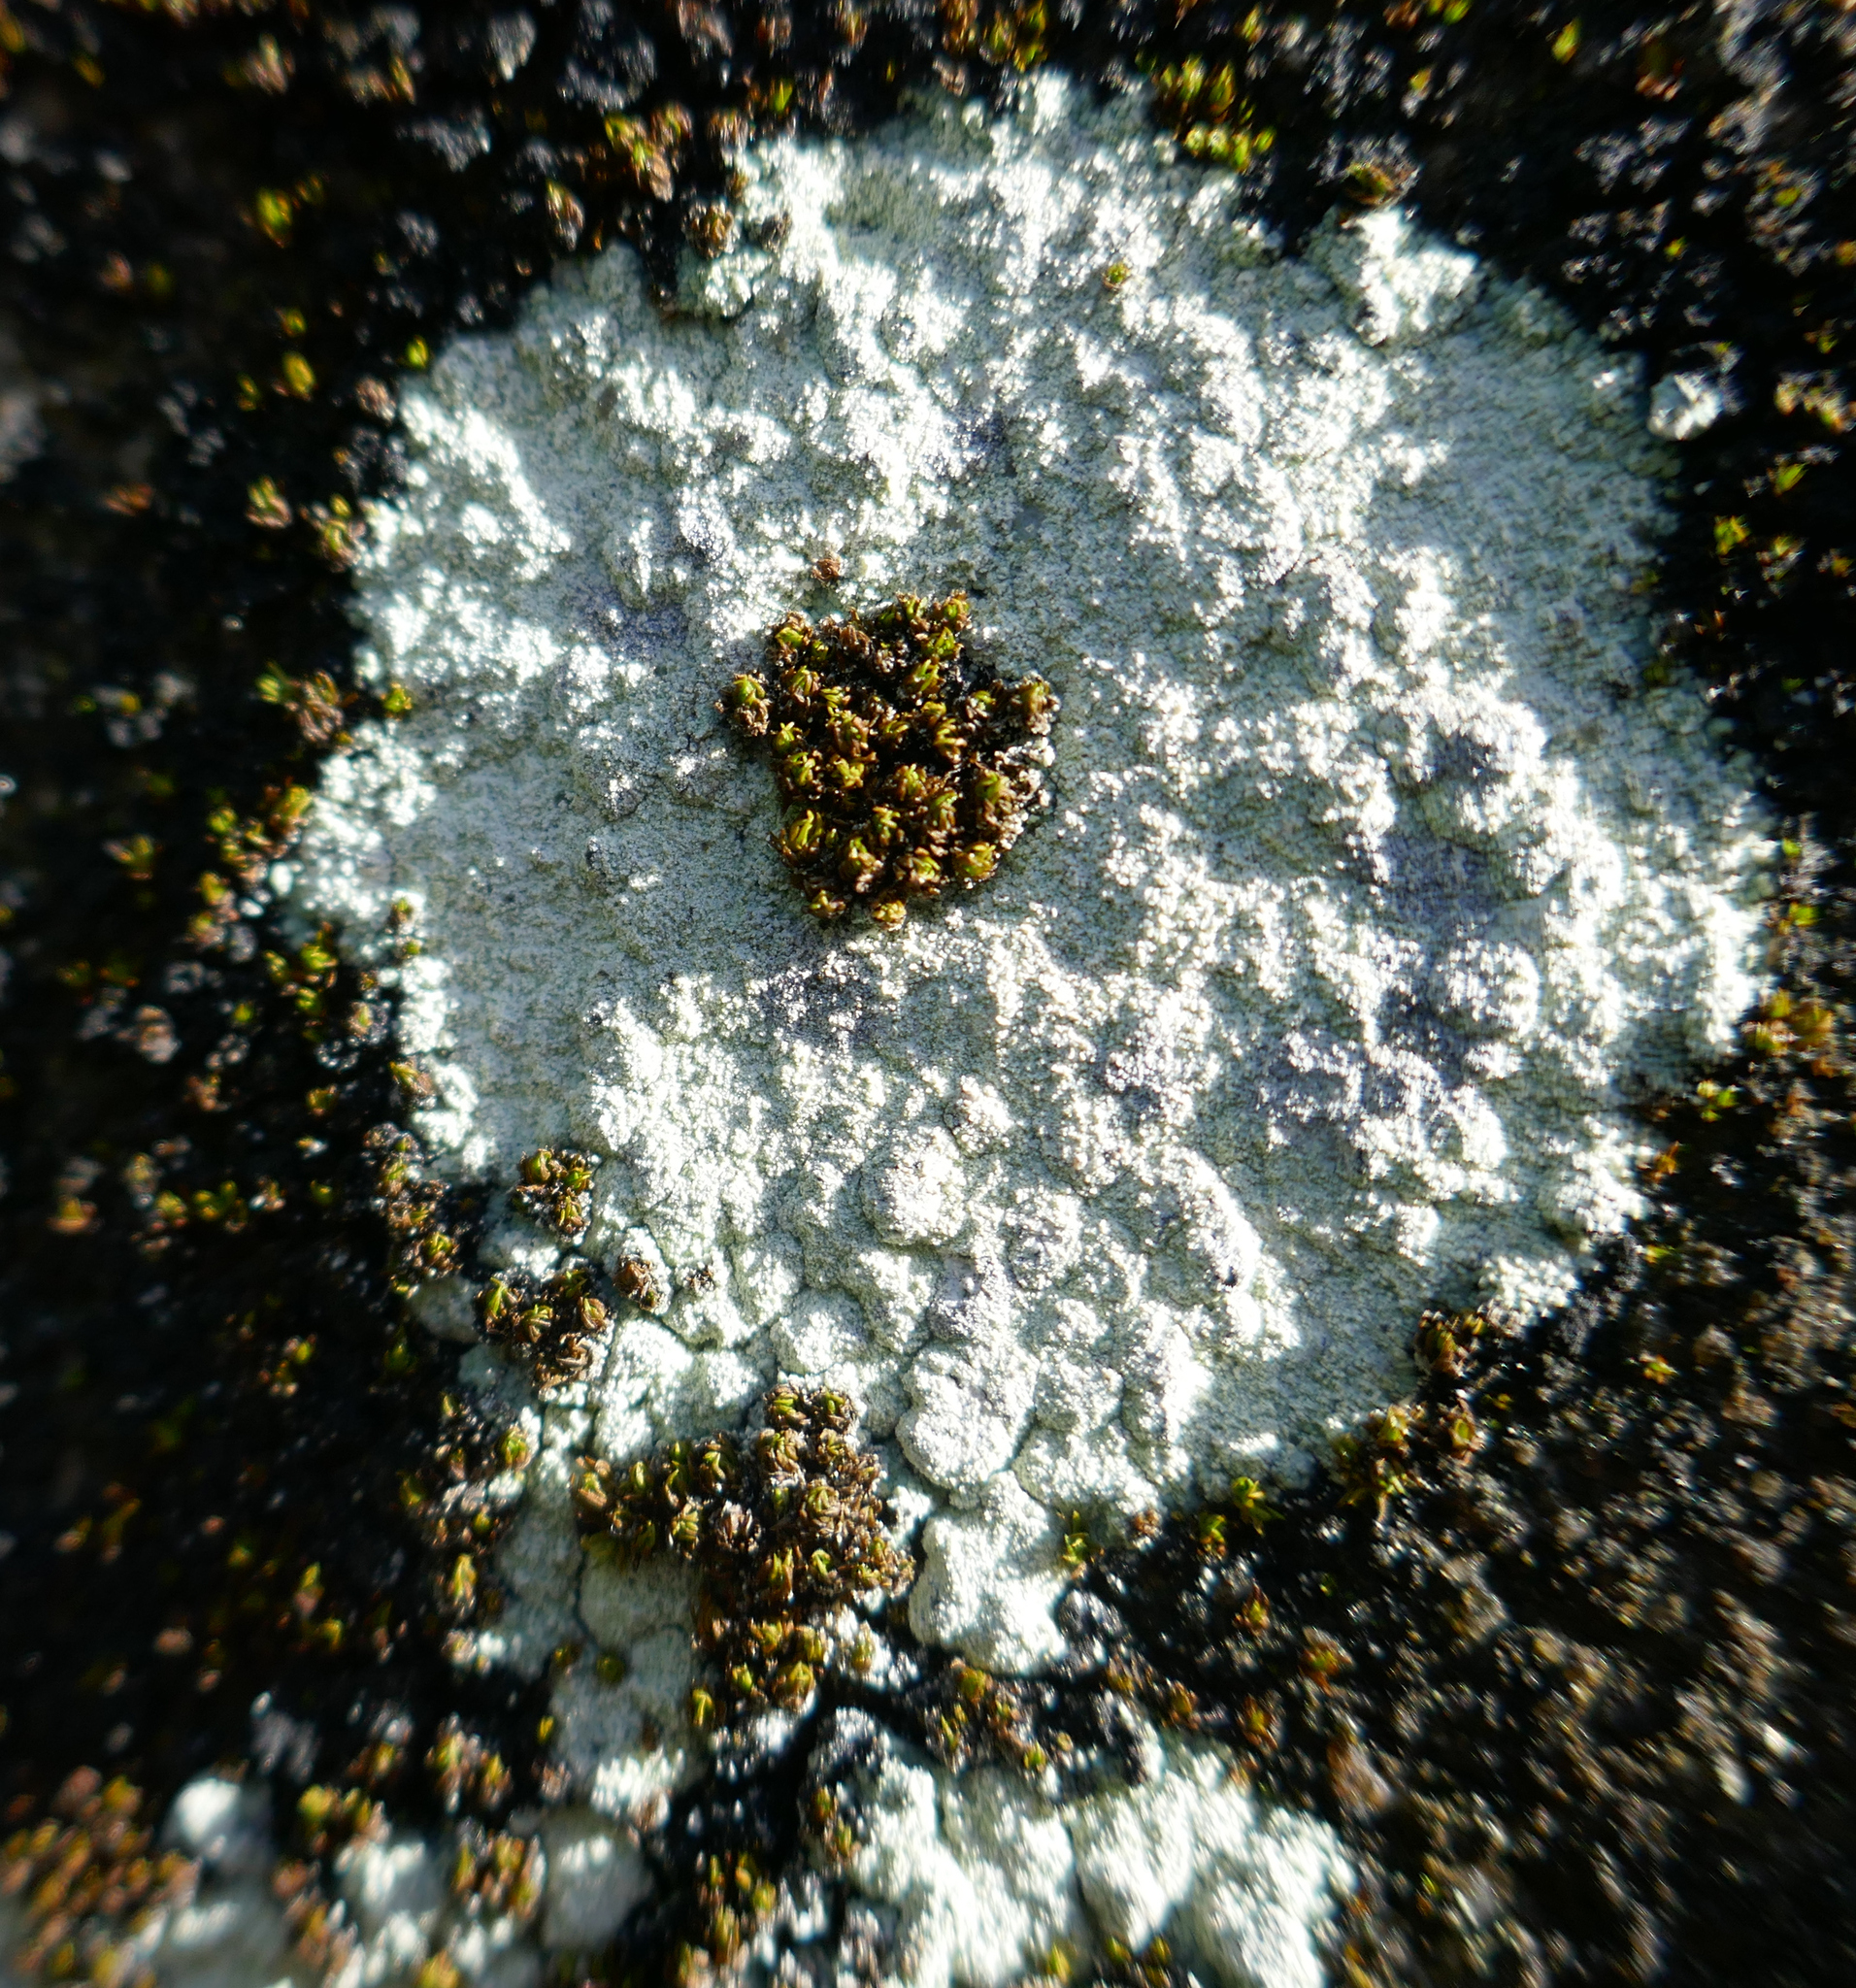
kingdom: Fungi
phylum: Ascomycota
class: Lecanoromycetes
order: Lecanorales
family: Lecanoraceae
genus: Polyozosia
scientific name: Polyozosia albescens
